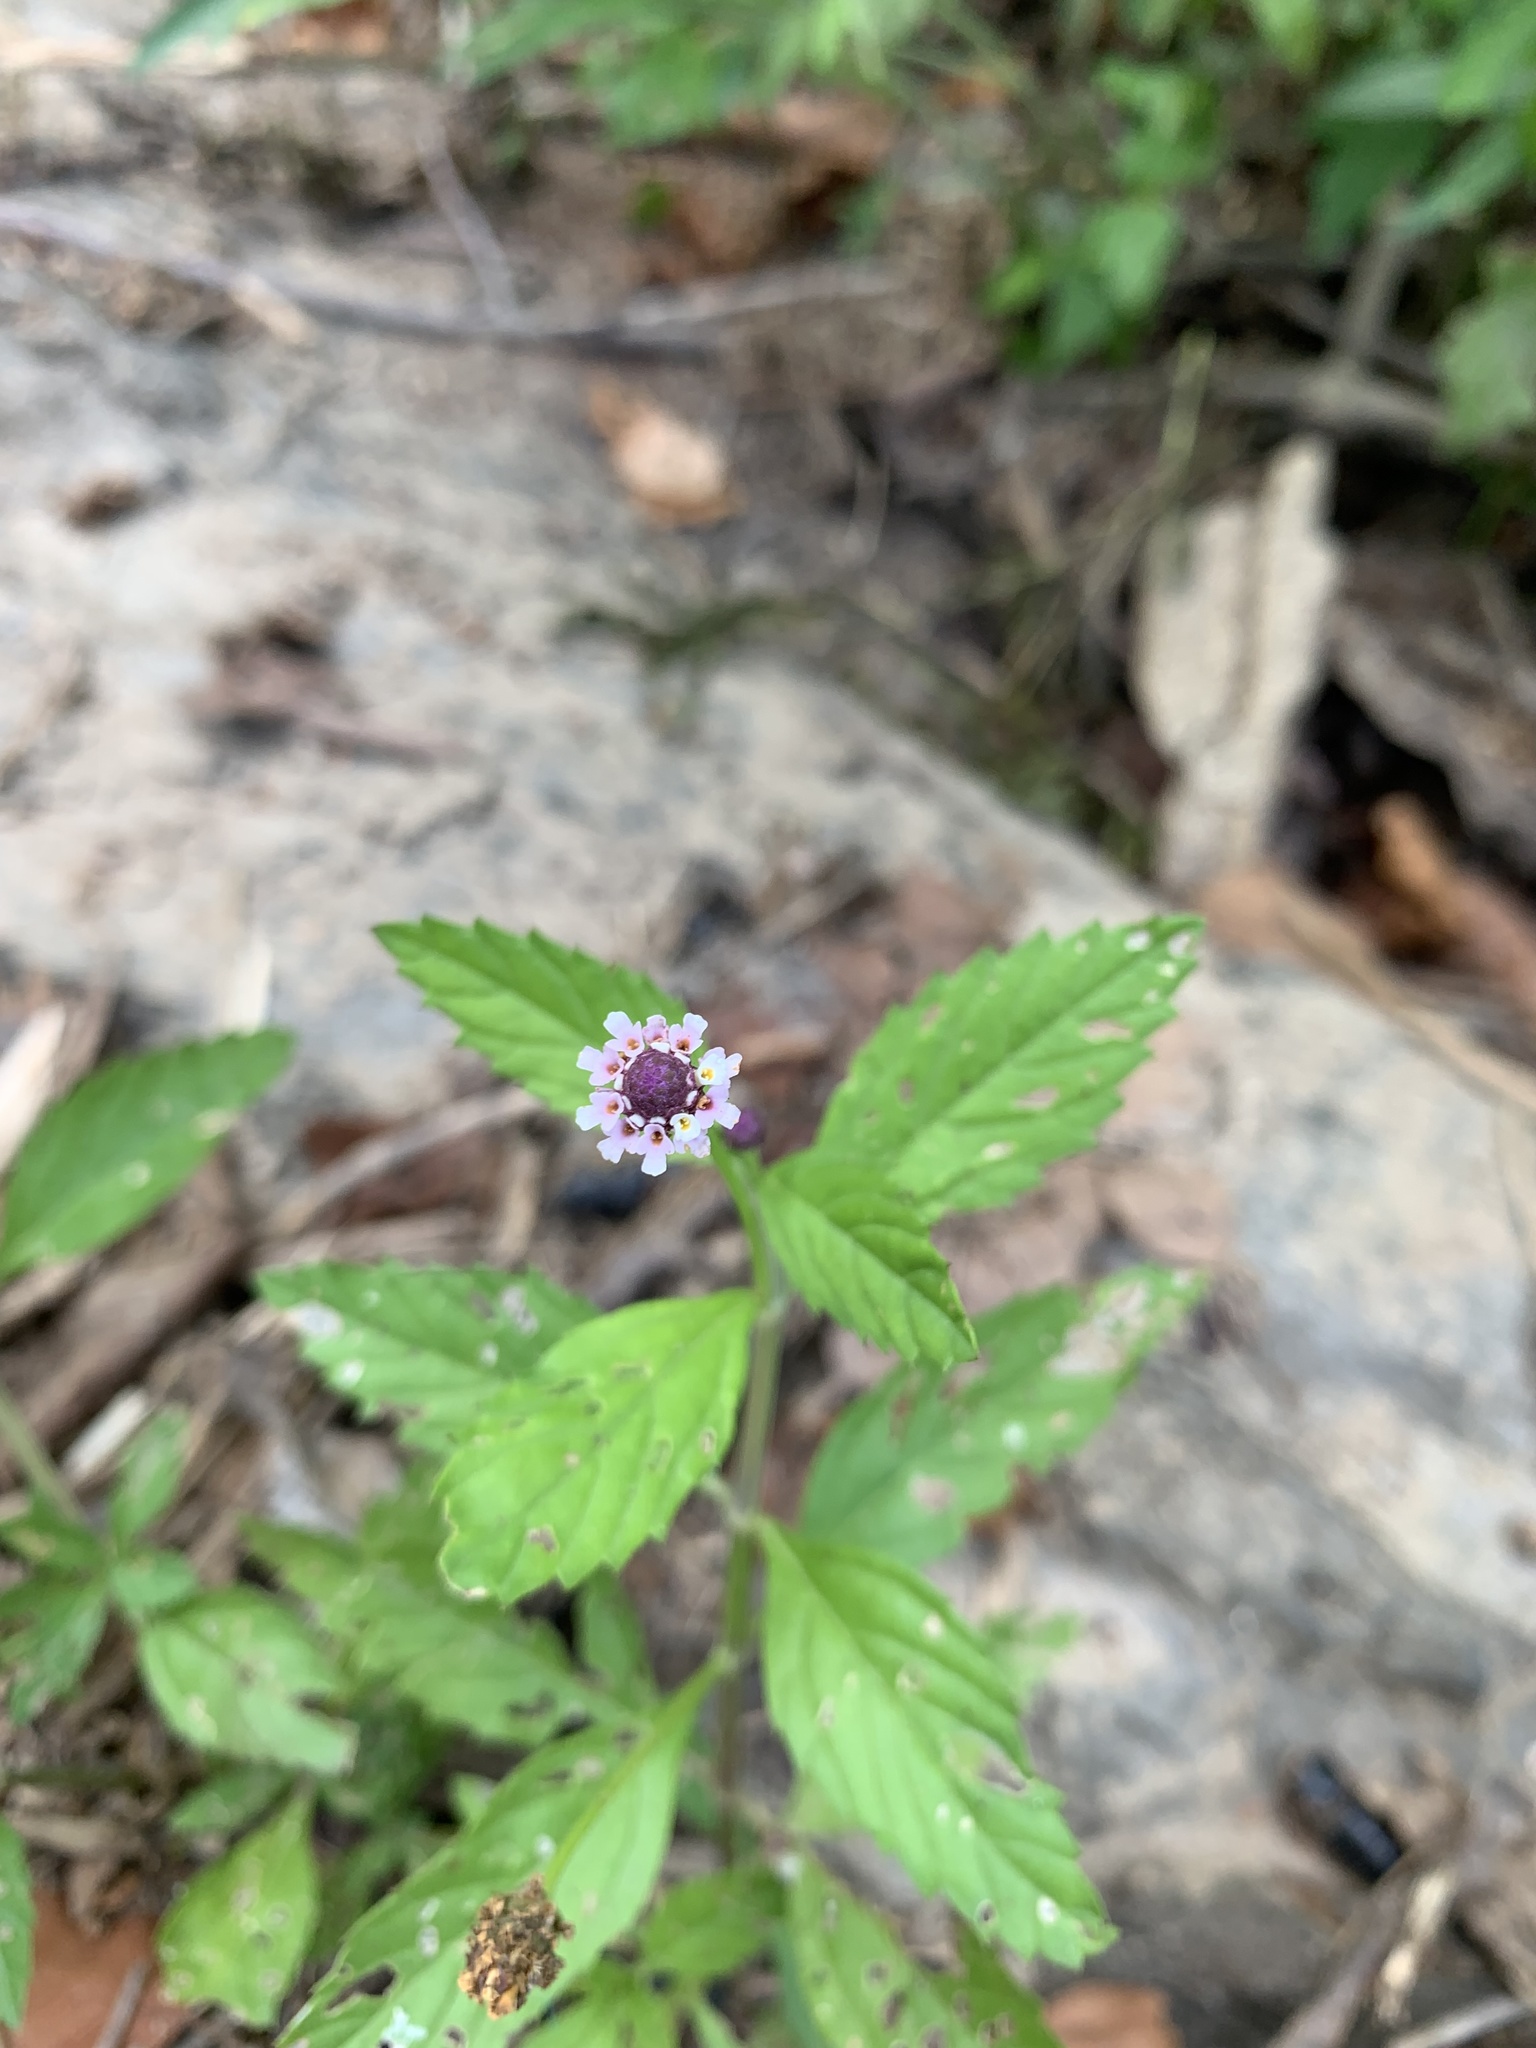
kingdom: Plantae
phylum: Tracheophyta
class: Magnoliopsida
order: Lamiales
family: Verbenaceae
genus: Phyla
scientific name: Phyla lanceolata
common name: Northern fogfruit
